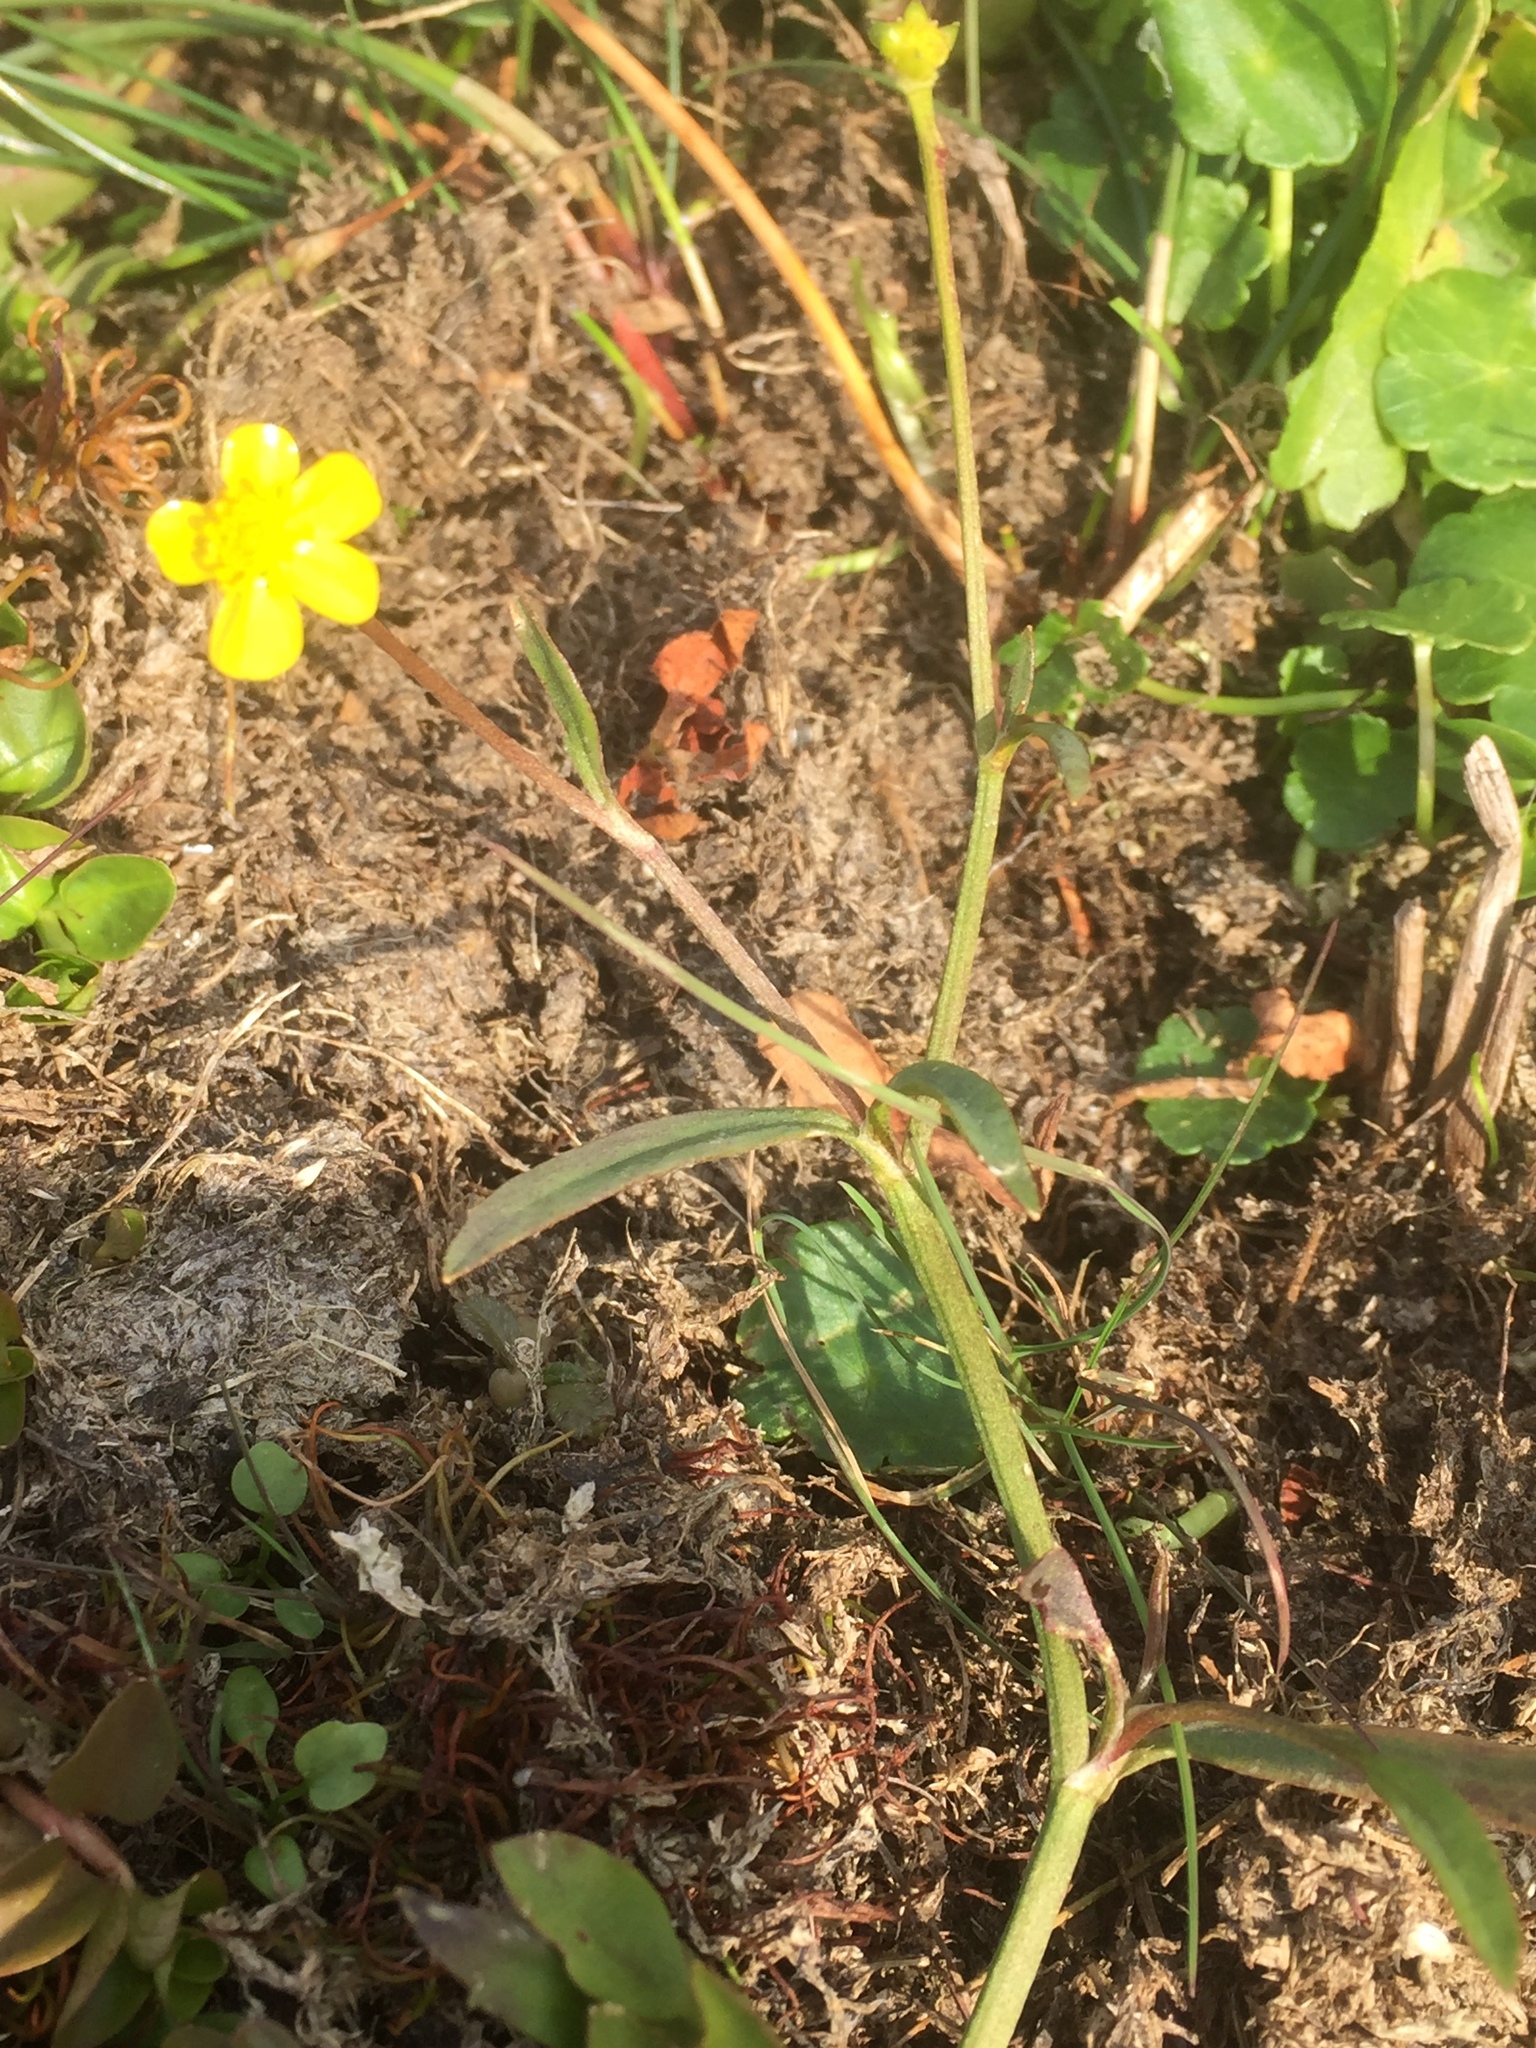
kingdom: Plantae
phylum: Tracheophyta
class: Magnoliopsida
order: Ranunculales
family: Ranunculaceae
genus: Ranunculus
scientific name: Ranunculus flammula
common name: Lesser spearwort
